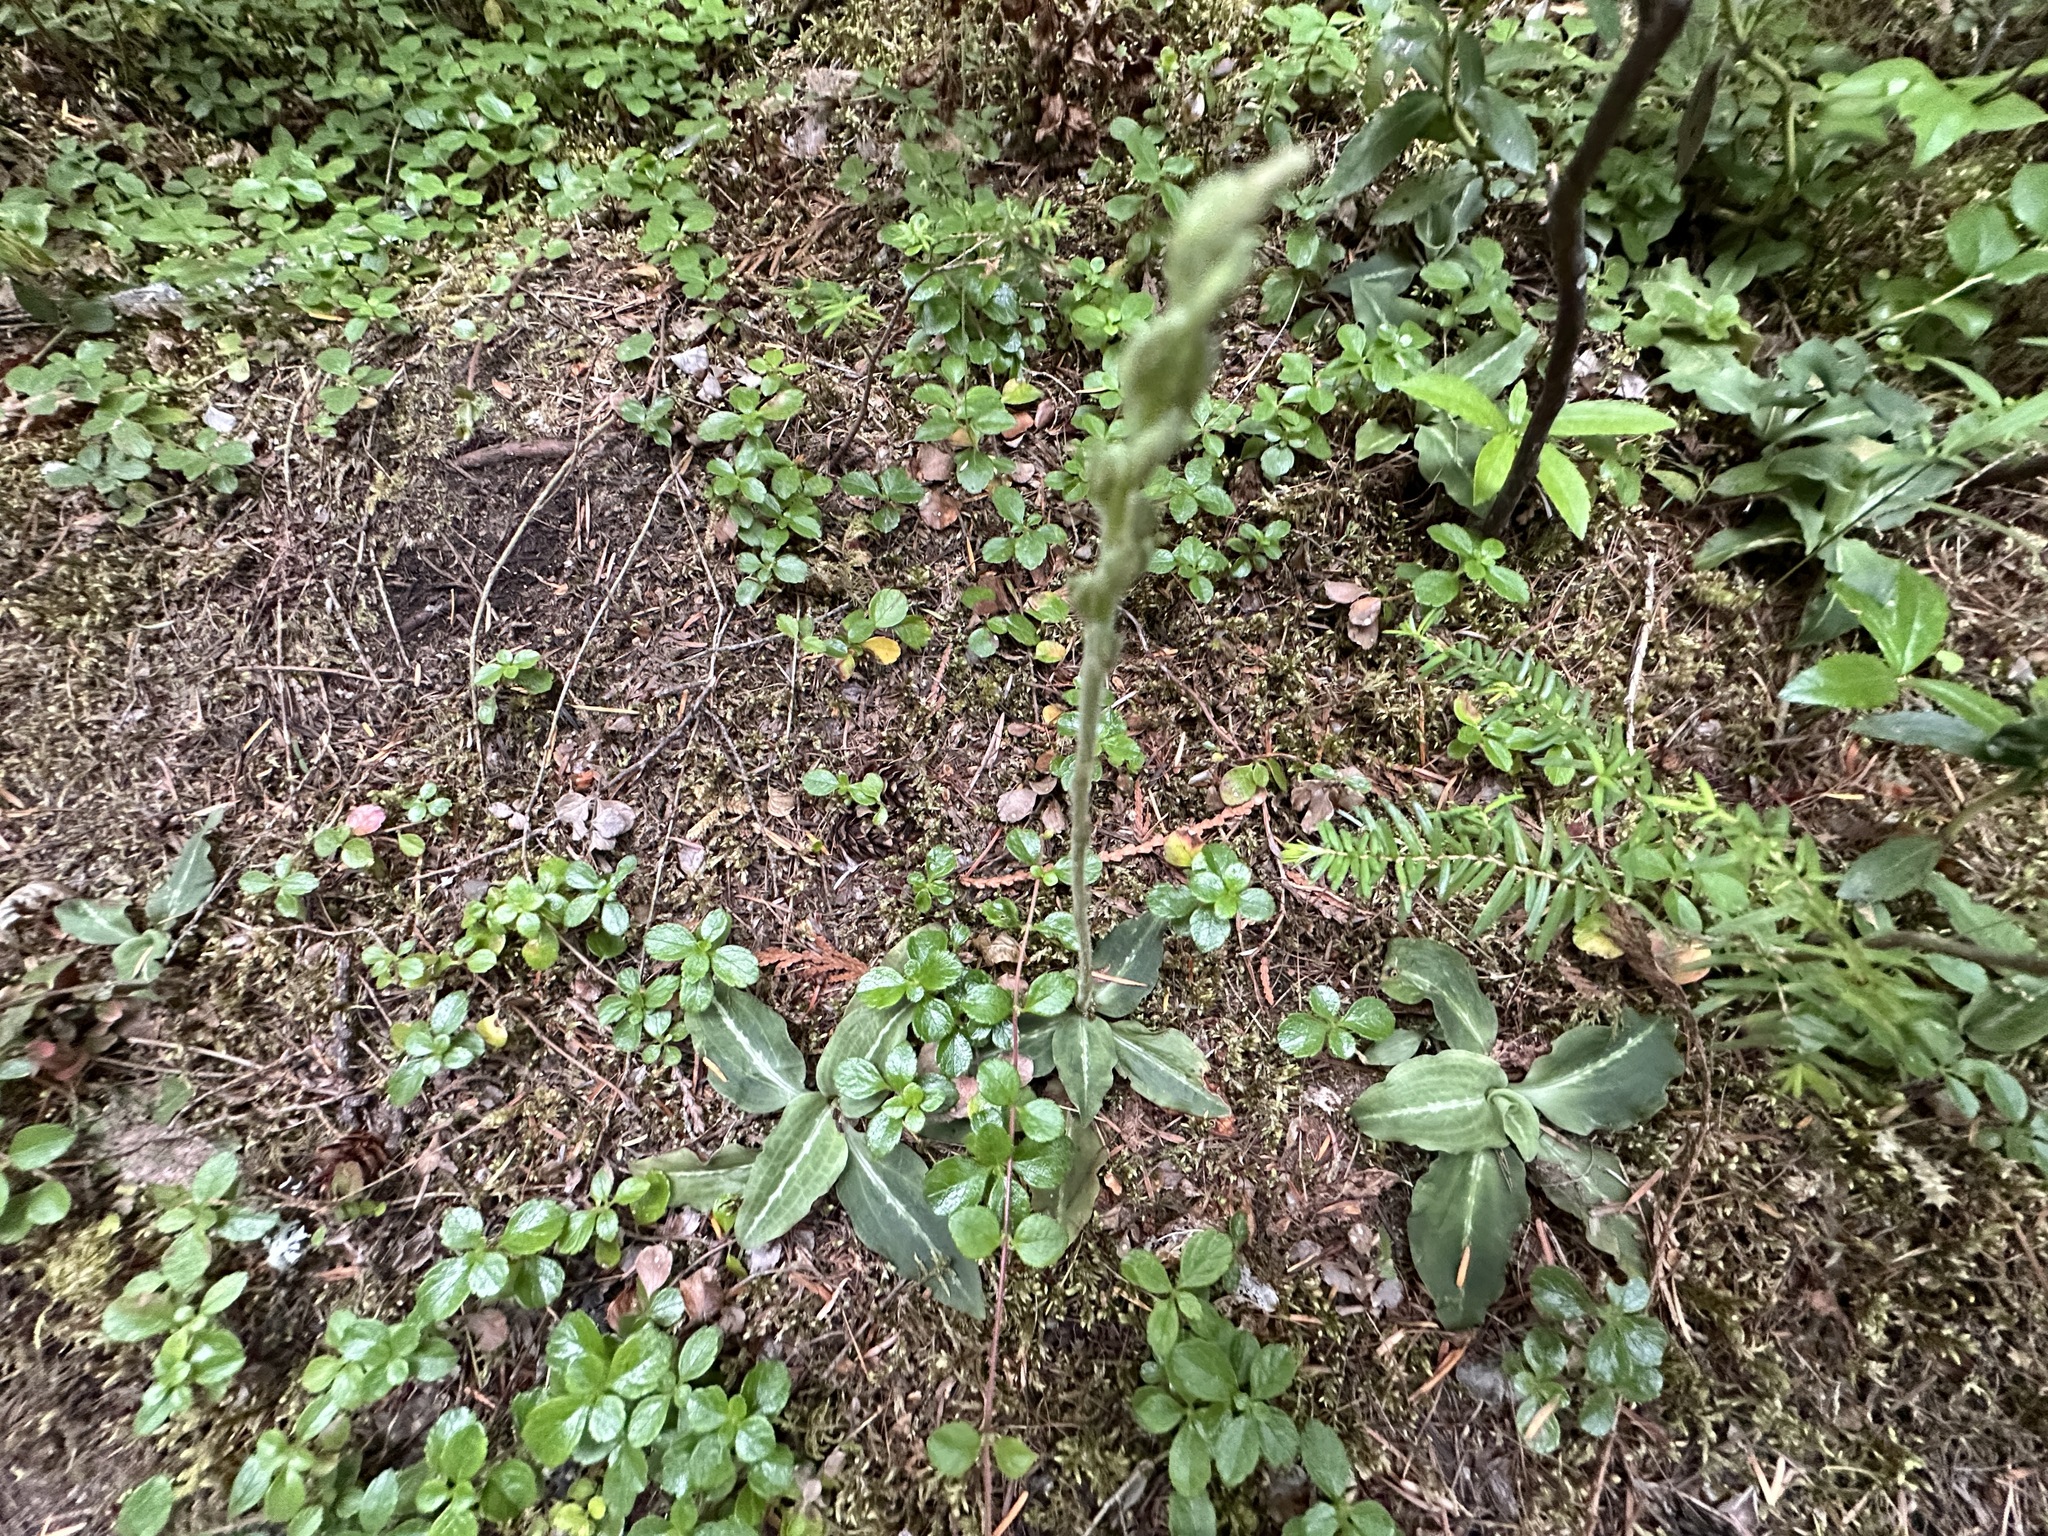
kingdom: Plantae
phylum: Tracheophyta
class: Liliopsida
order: Asparagales
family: Orchidaceae
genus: Goodyera
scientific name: Goodyera oblongifolia
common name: Giant rattlesnake-plantain
